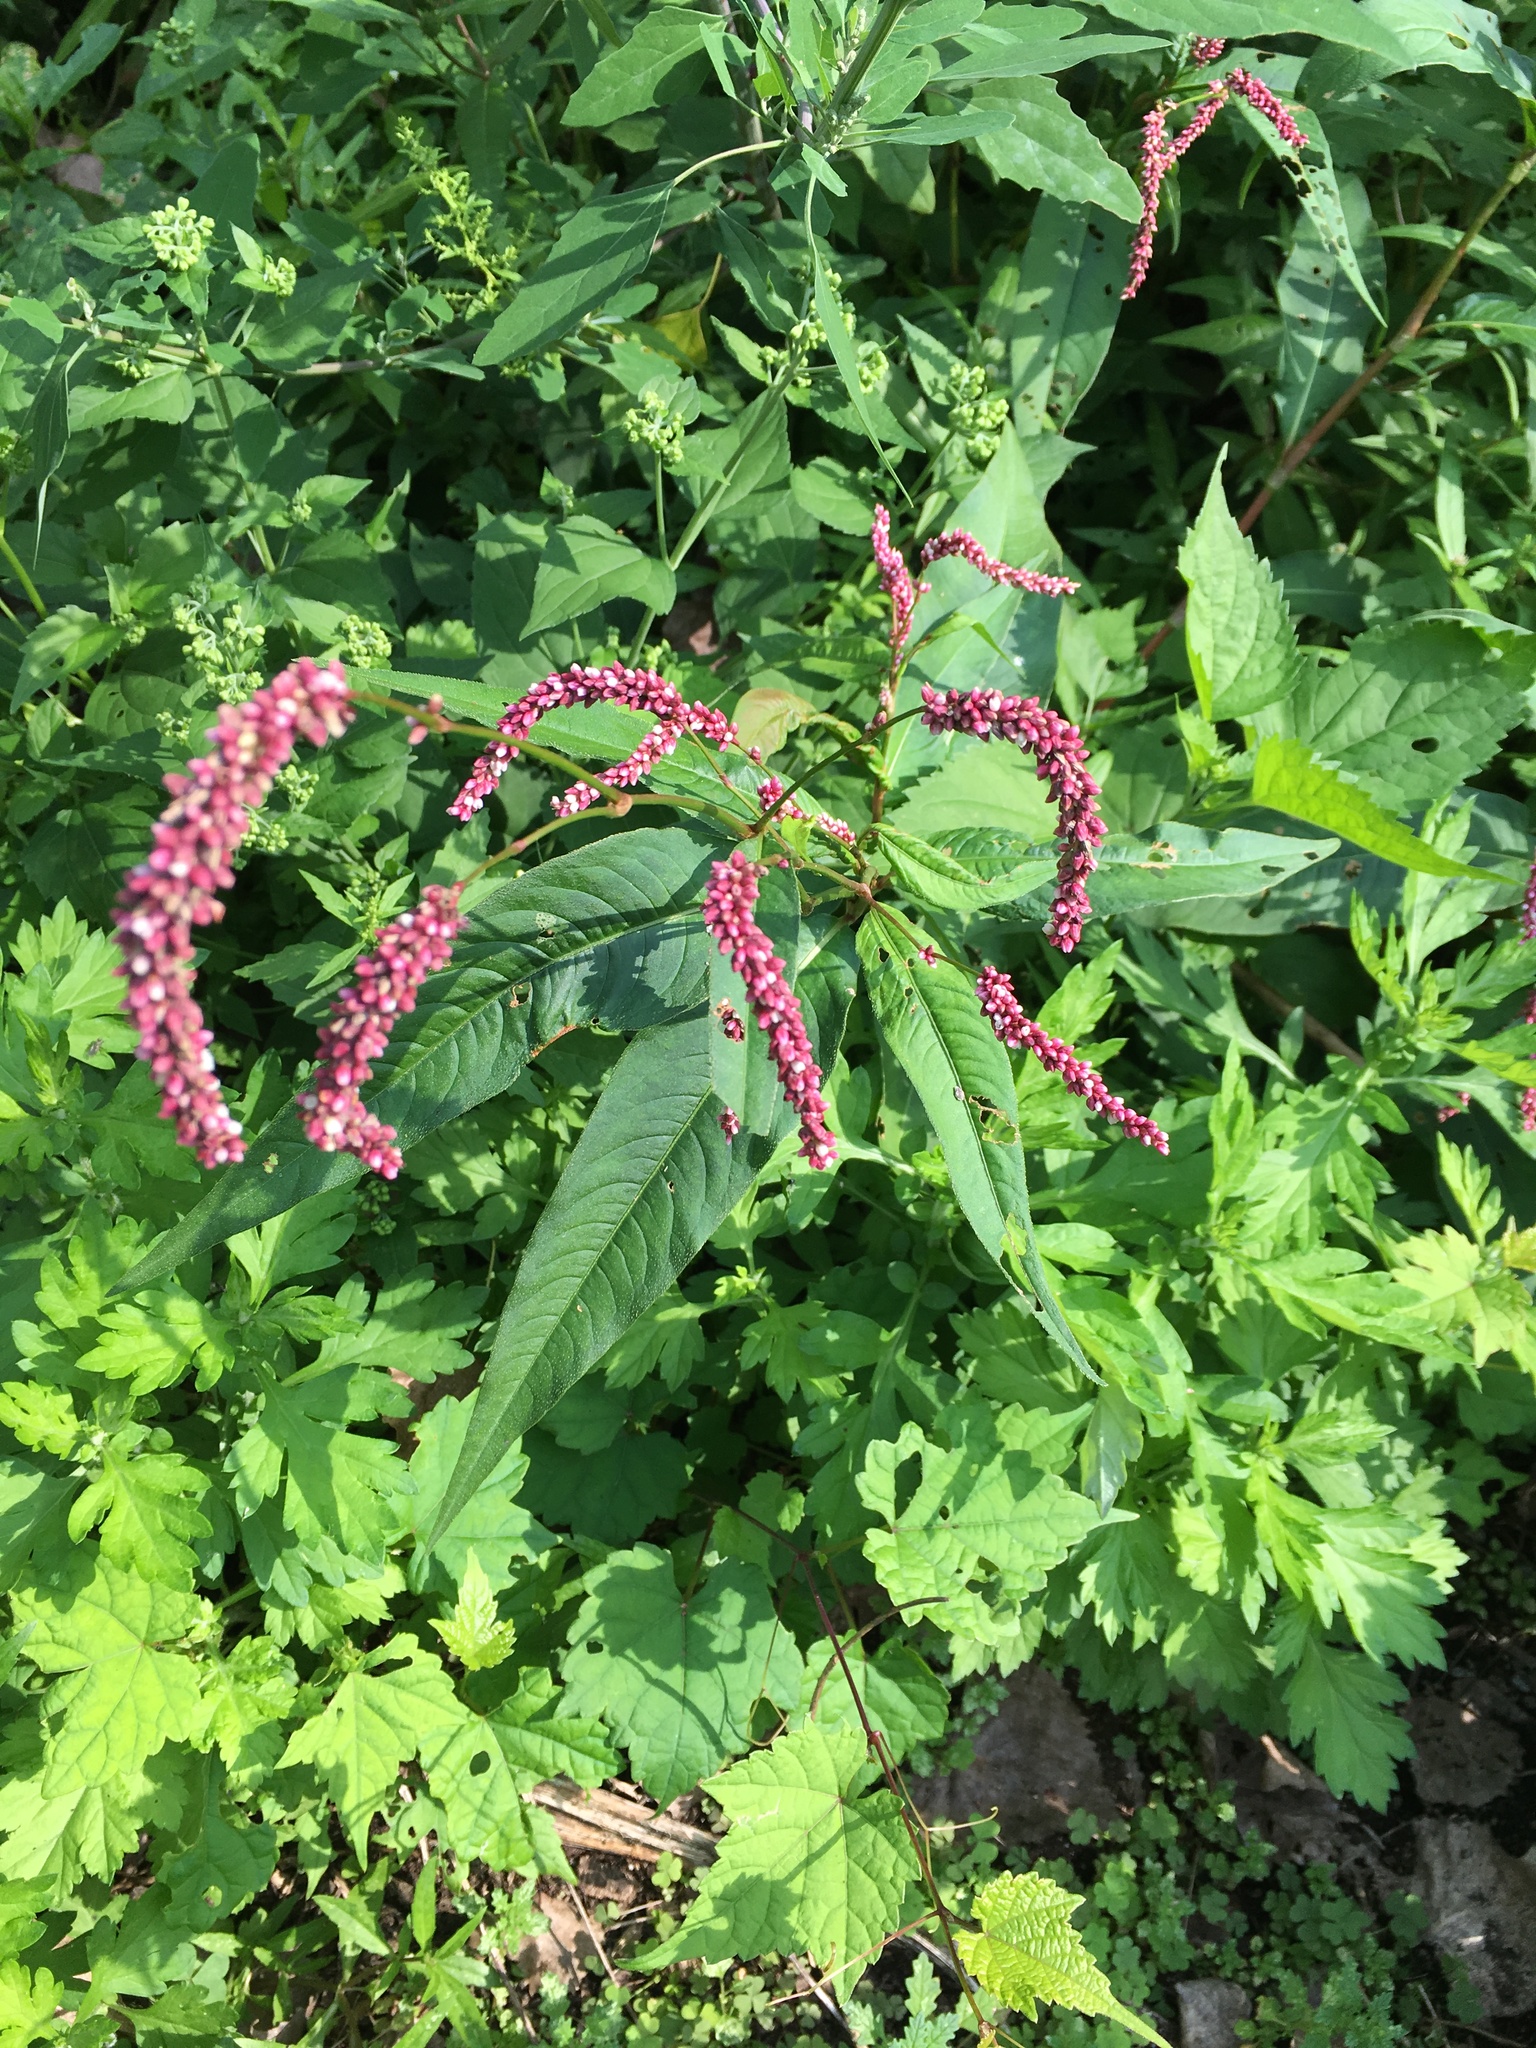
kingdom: Plantae
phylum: Tracheophyta
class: Magnoliopsida
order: Caryophyllales
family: Polygonaceae
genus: Persicaria
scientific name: Persicaria extremiorientalis
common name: Far-eastern smartweed
